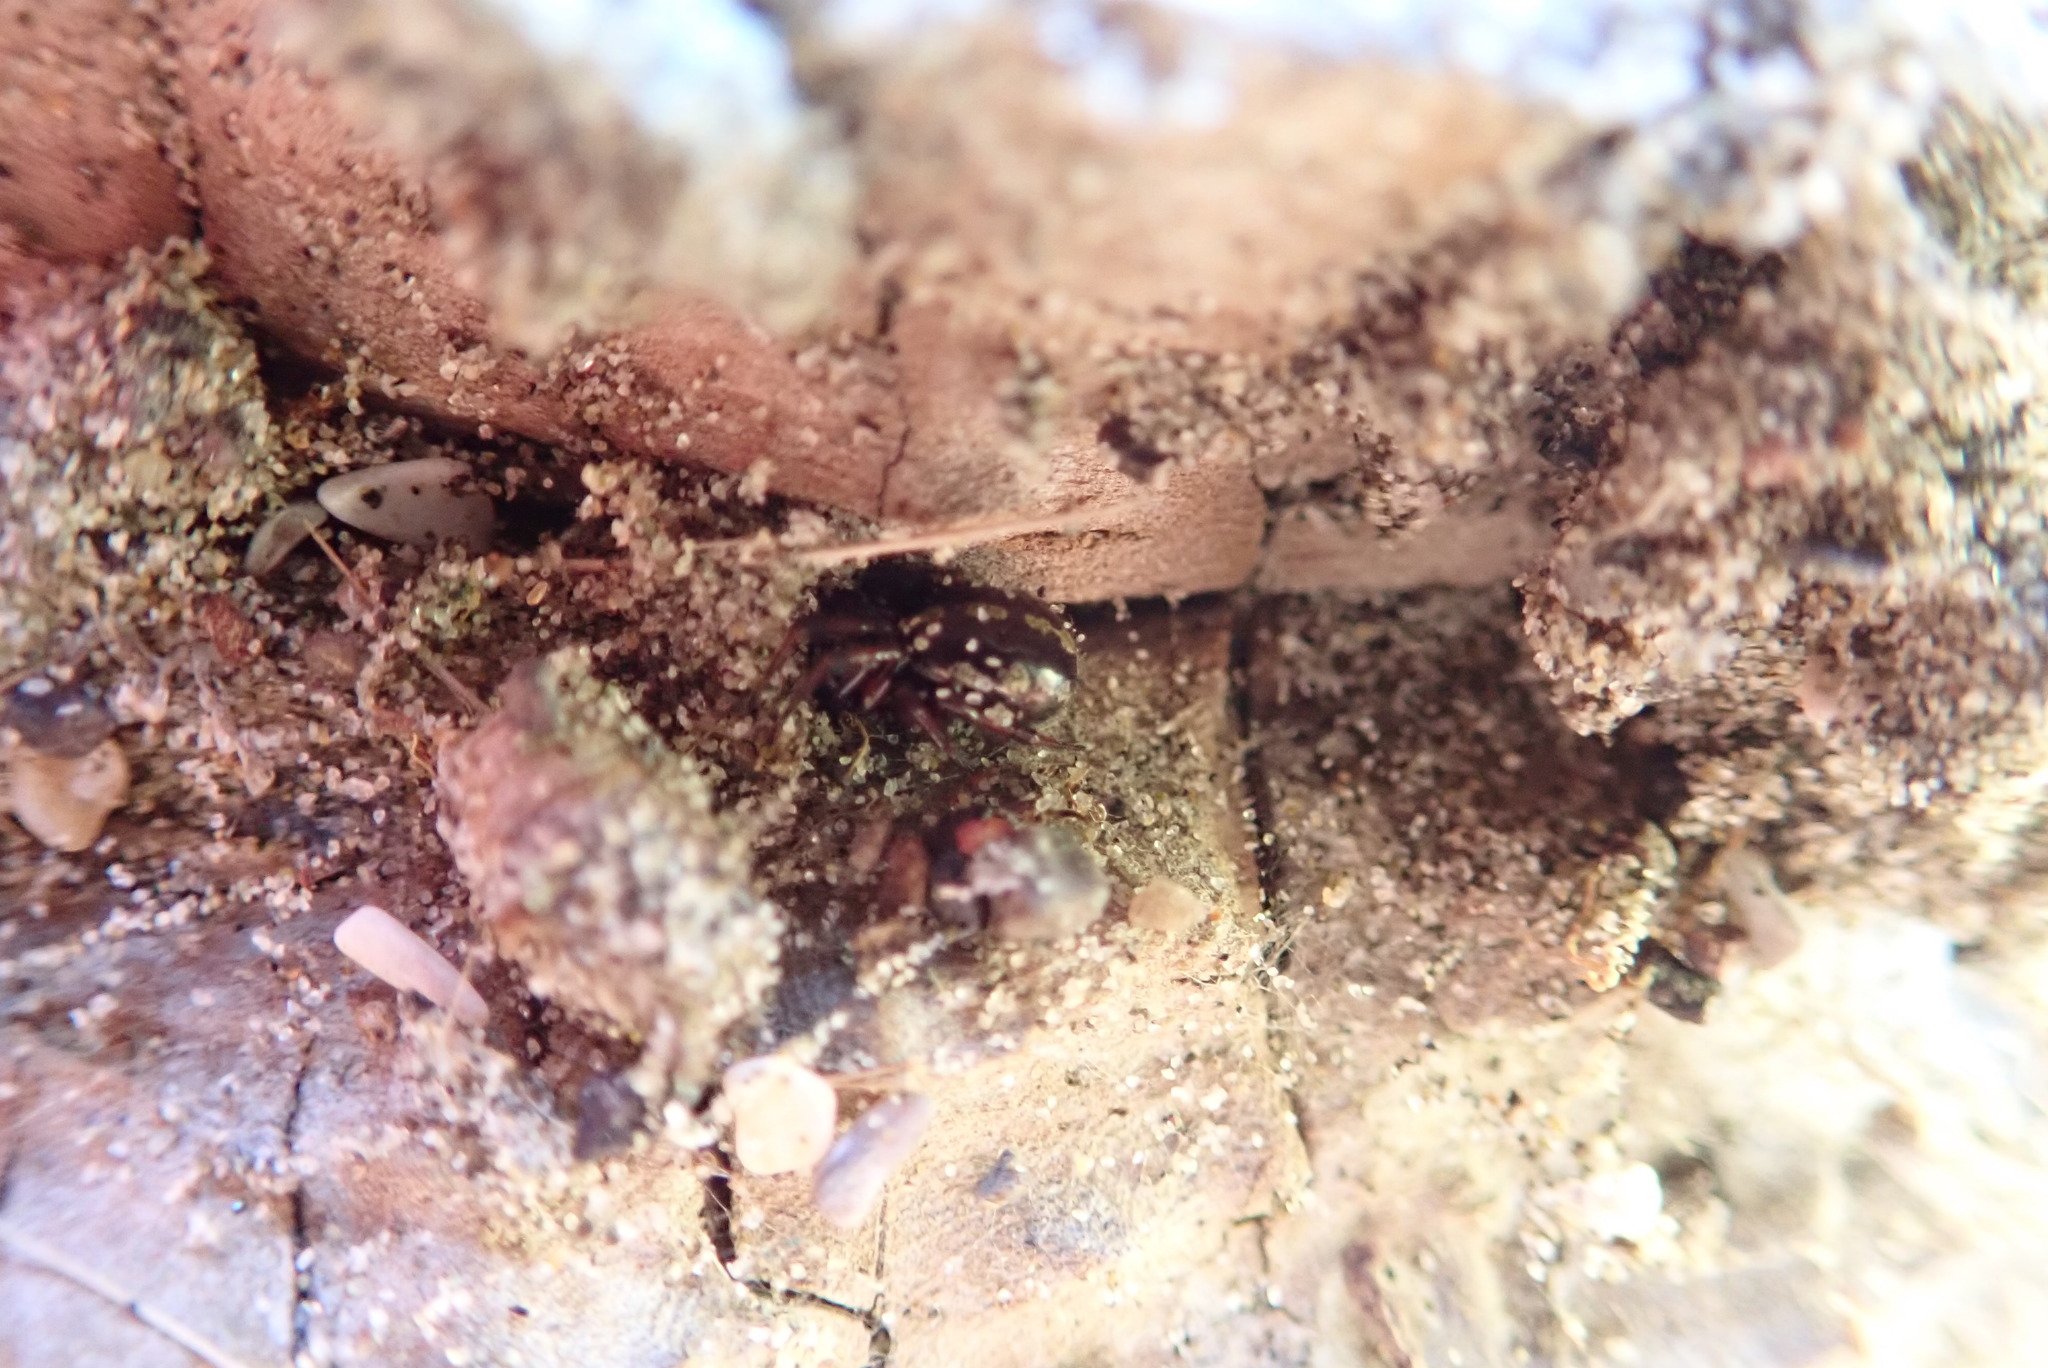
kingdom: Animalia
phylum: Arthropoda
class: Arachnida
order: Araneae
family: Theridiidae
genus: Steatoda
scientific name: Steatoda lepida
